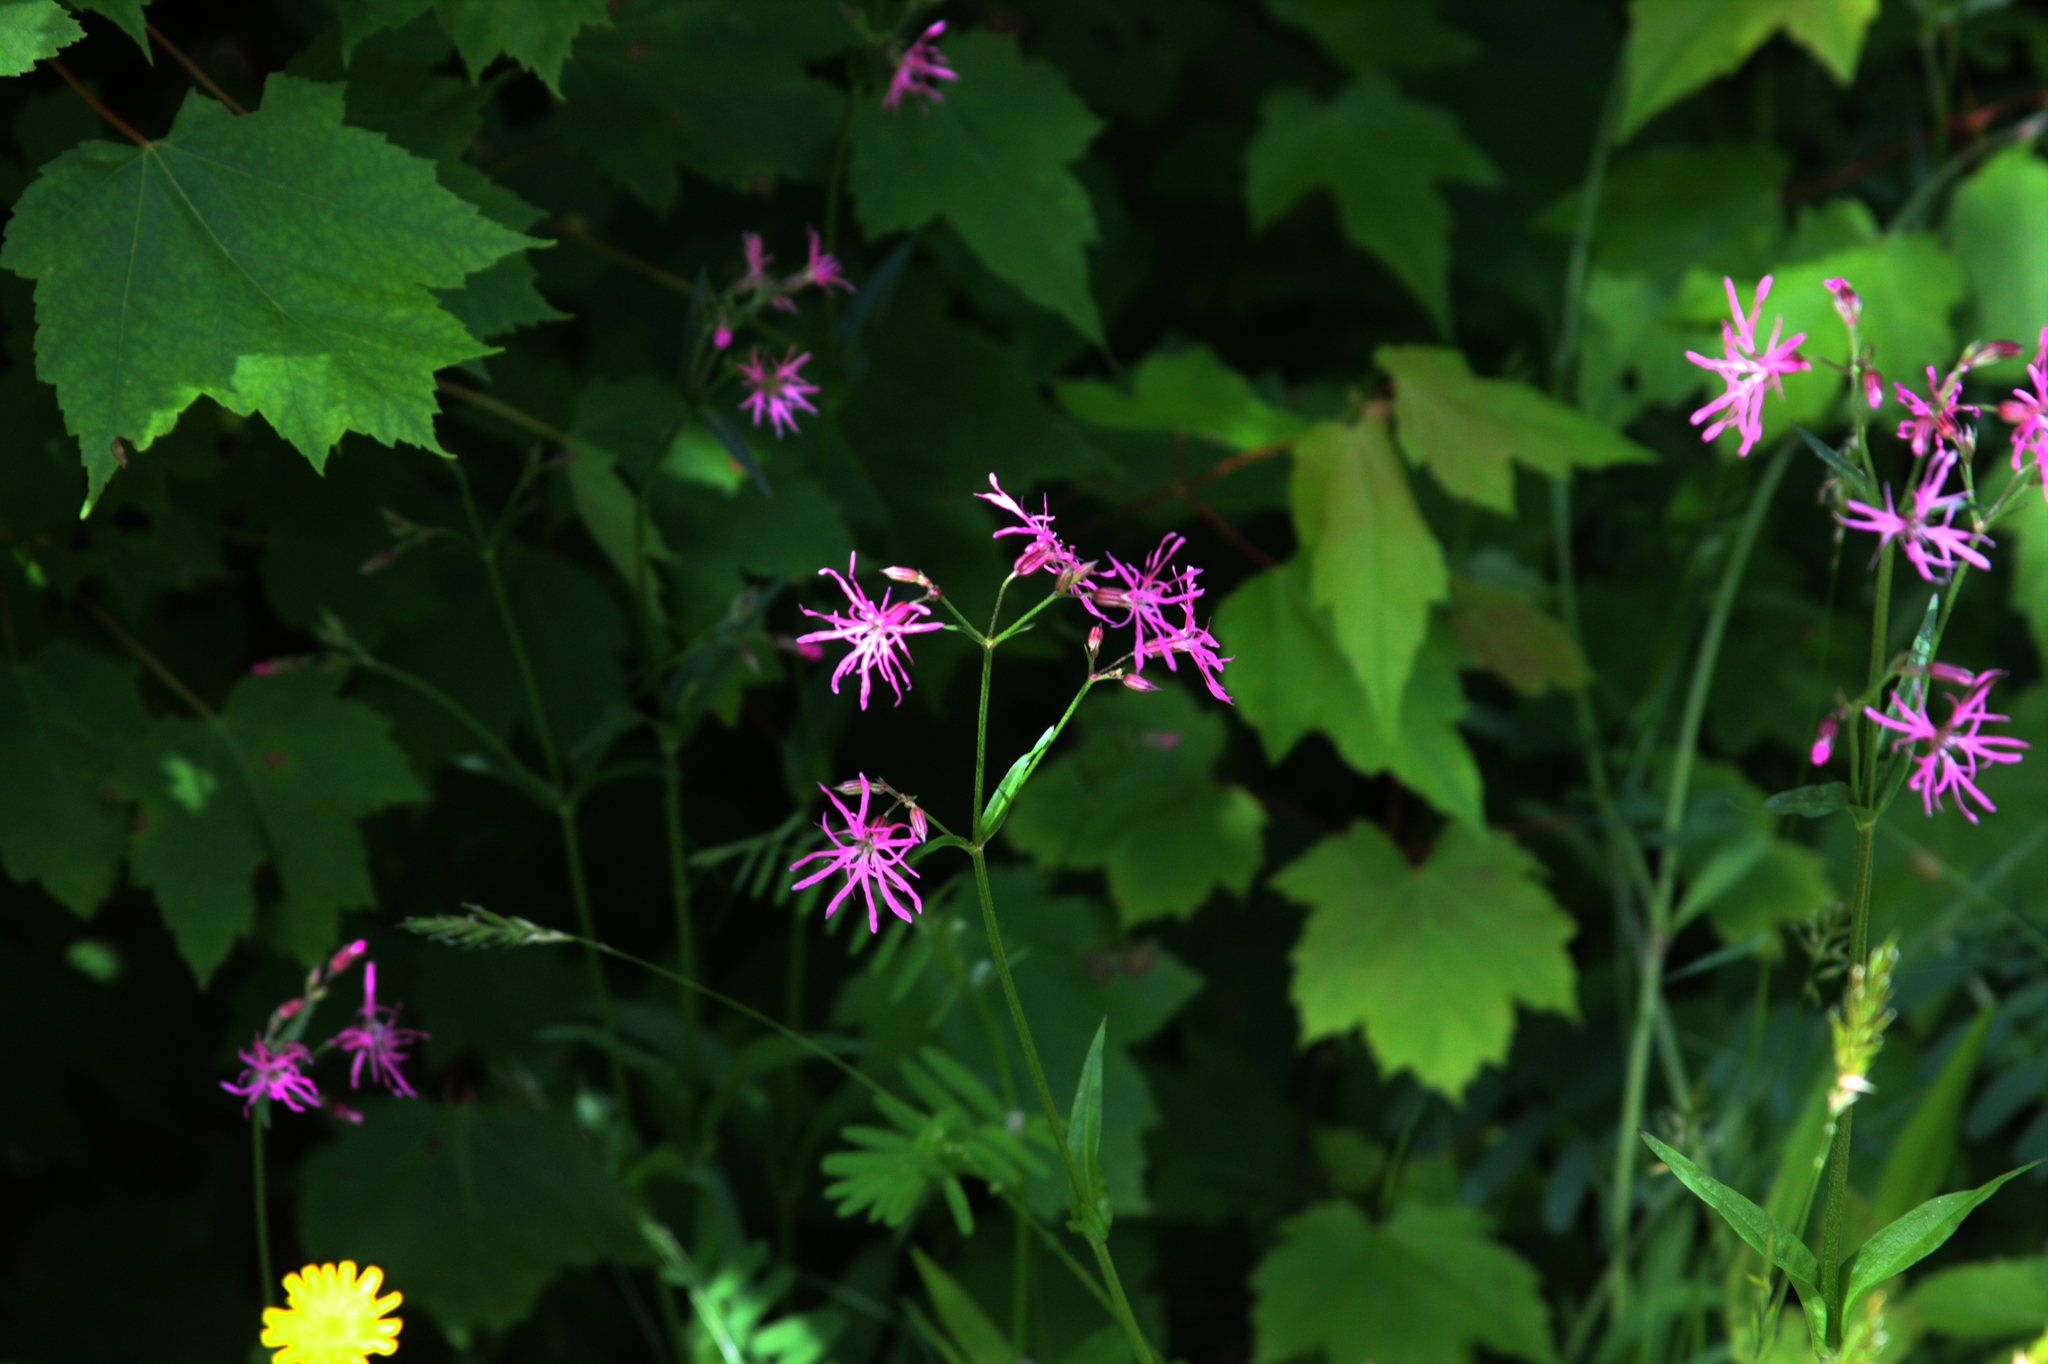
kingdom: Plantae
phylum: Tracheophyta
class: Magnoliopsida
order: Caryophyllales
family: Caryophyllaceae
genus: Silene
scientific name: Silene flos-cuculi
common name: Ragged-robin
